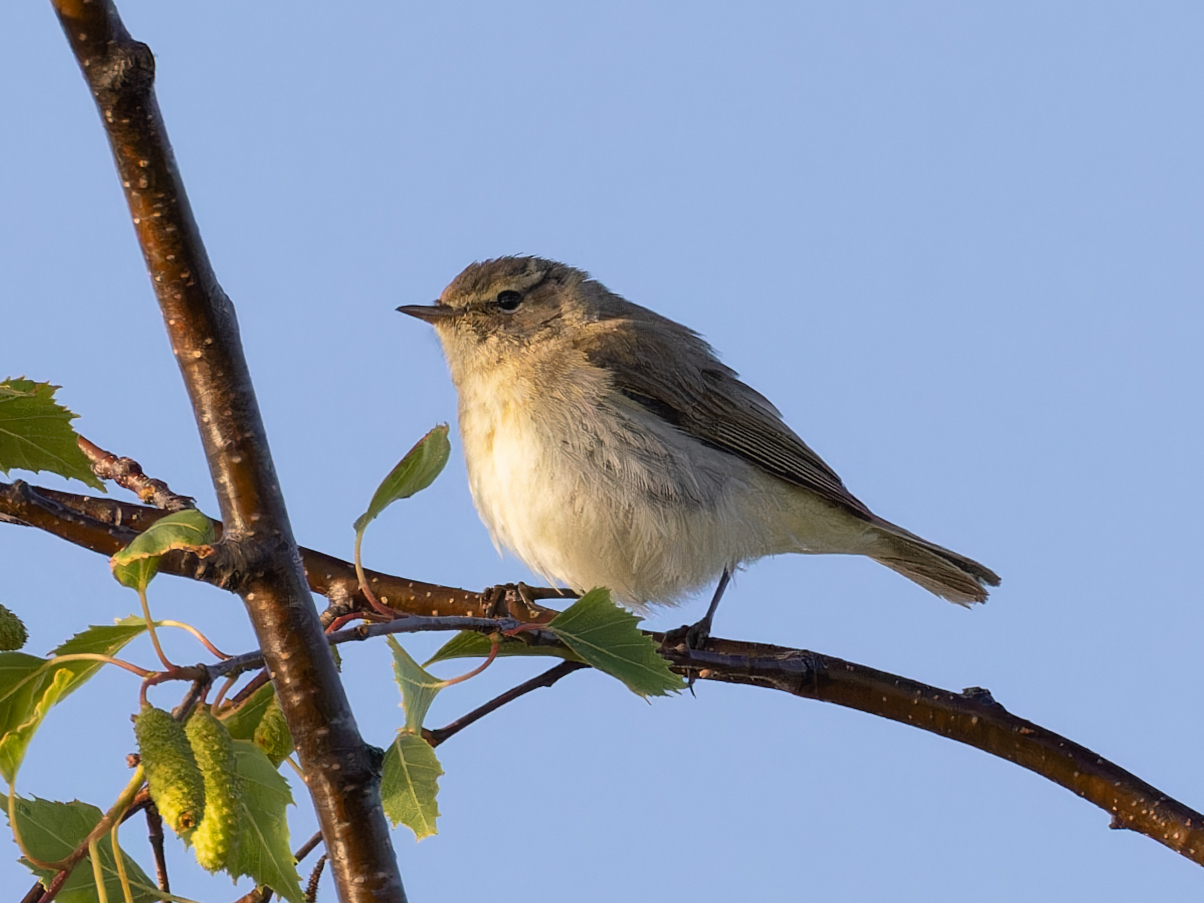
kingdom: Animalia
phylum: Chordata
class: Aves
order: Passeriformes
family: Phylloscopidae
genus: Phylloscopus
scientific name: Phylloscopus collybita
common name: Common chiffchaff
